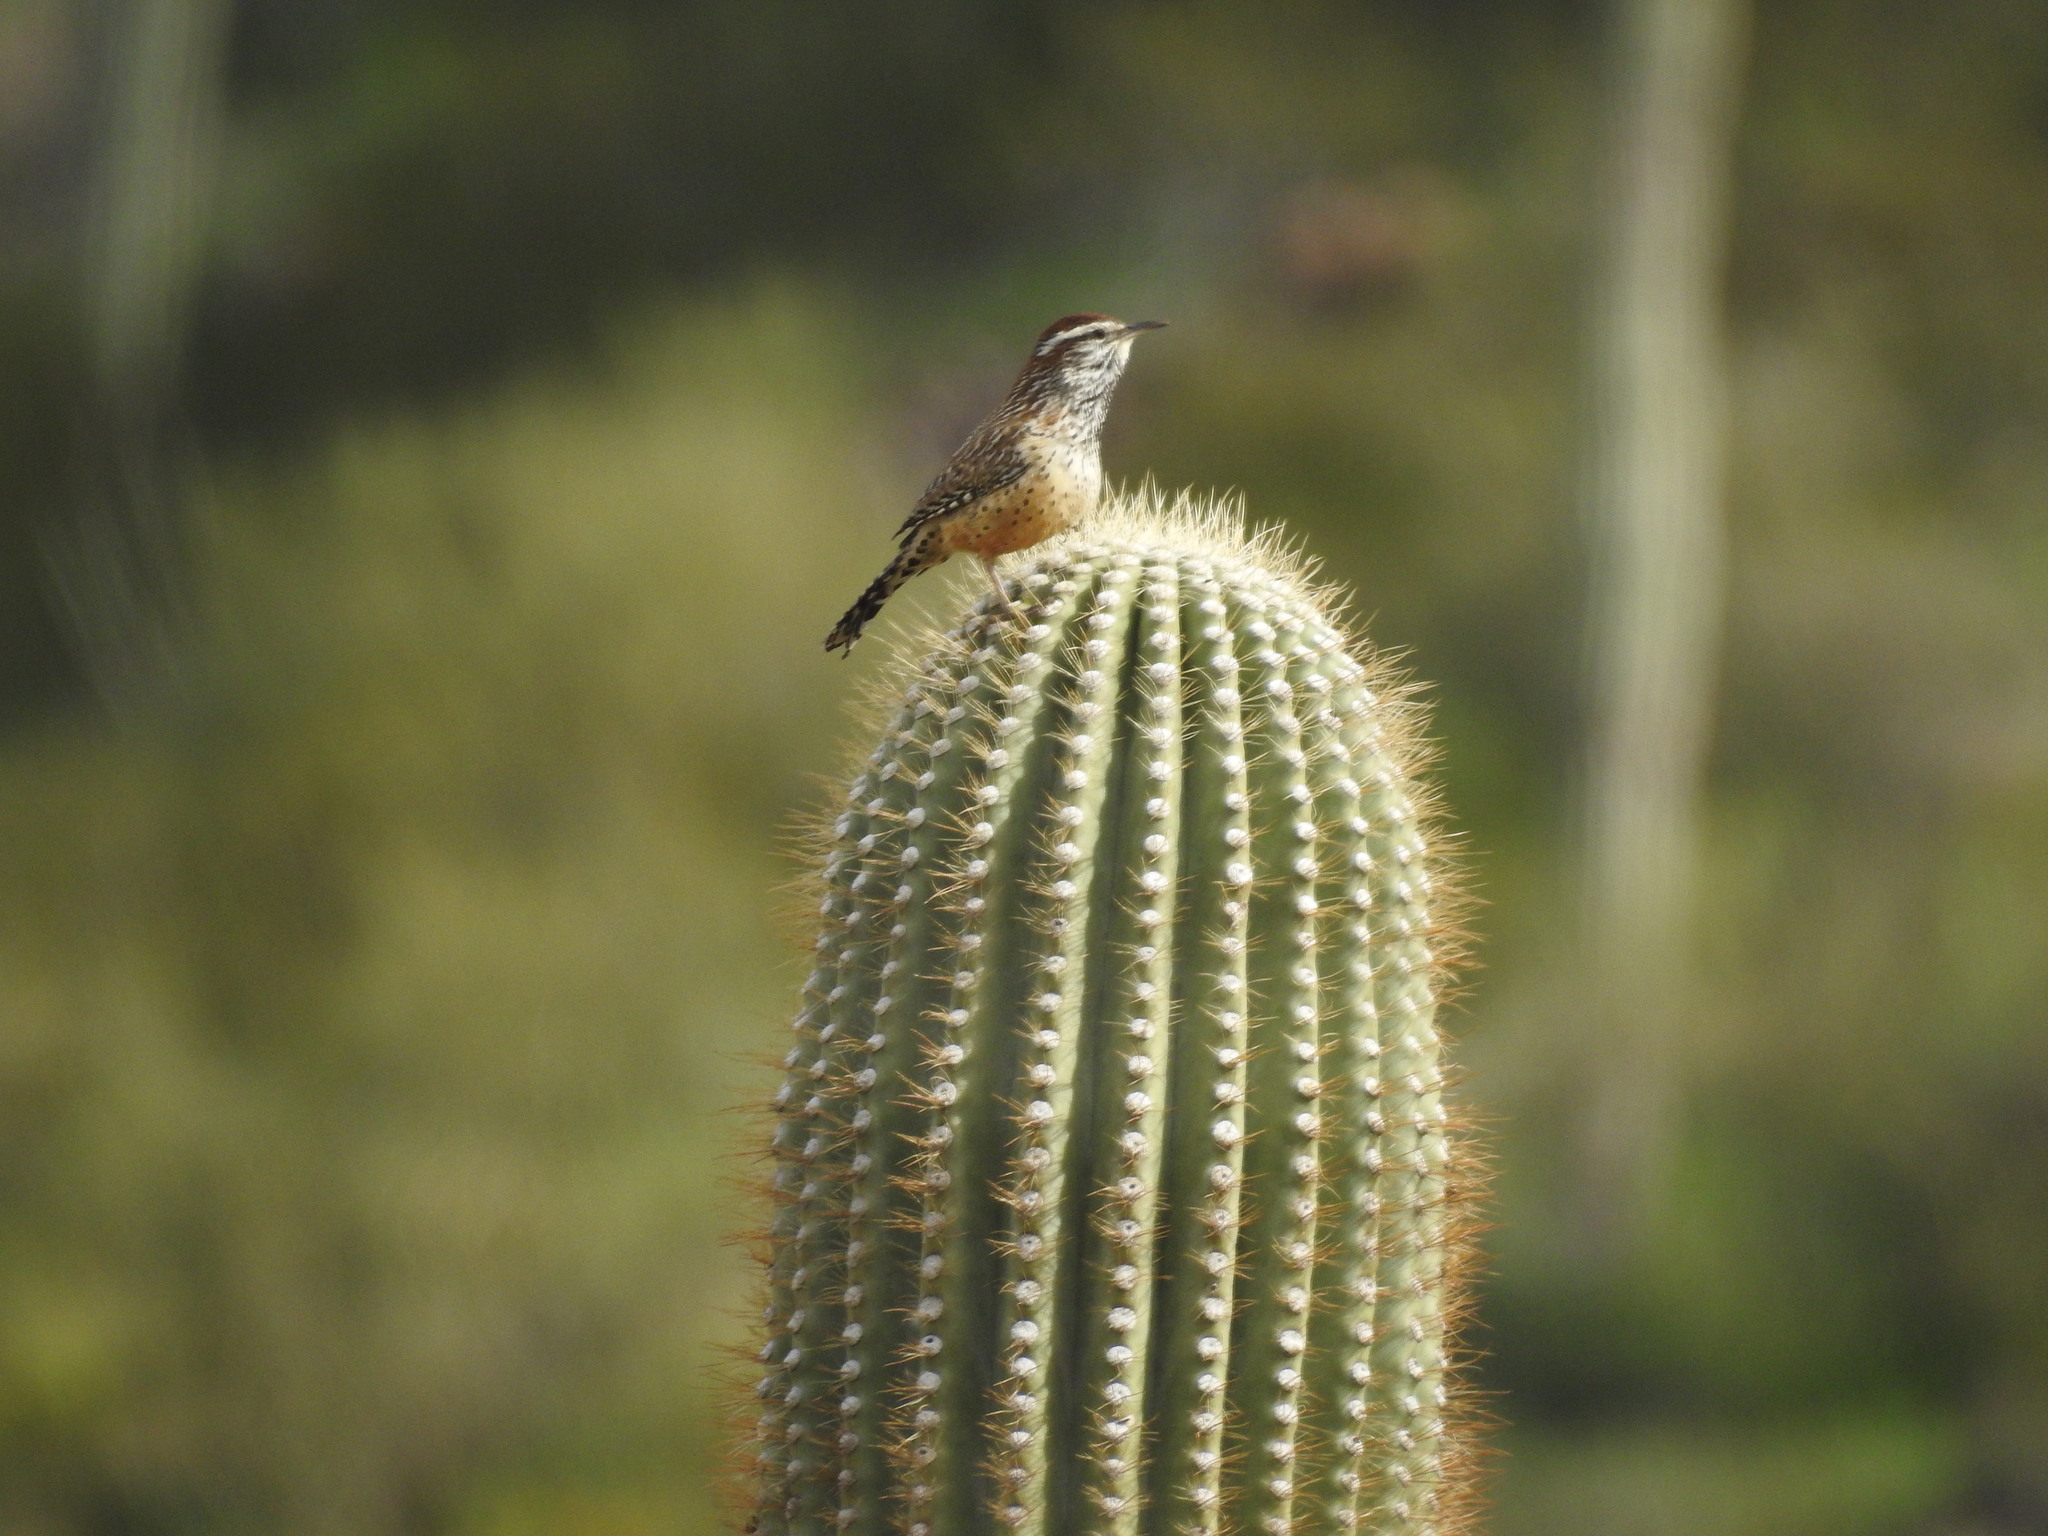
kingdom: Animalia
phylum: Chordata
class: Aves
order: Passeriformes
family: Troglodytidae
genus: Campylorhynchus
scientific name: Campylorhynchus brunneicapillus
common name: Cactus wren
